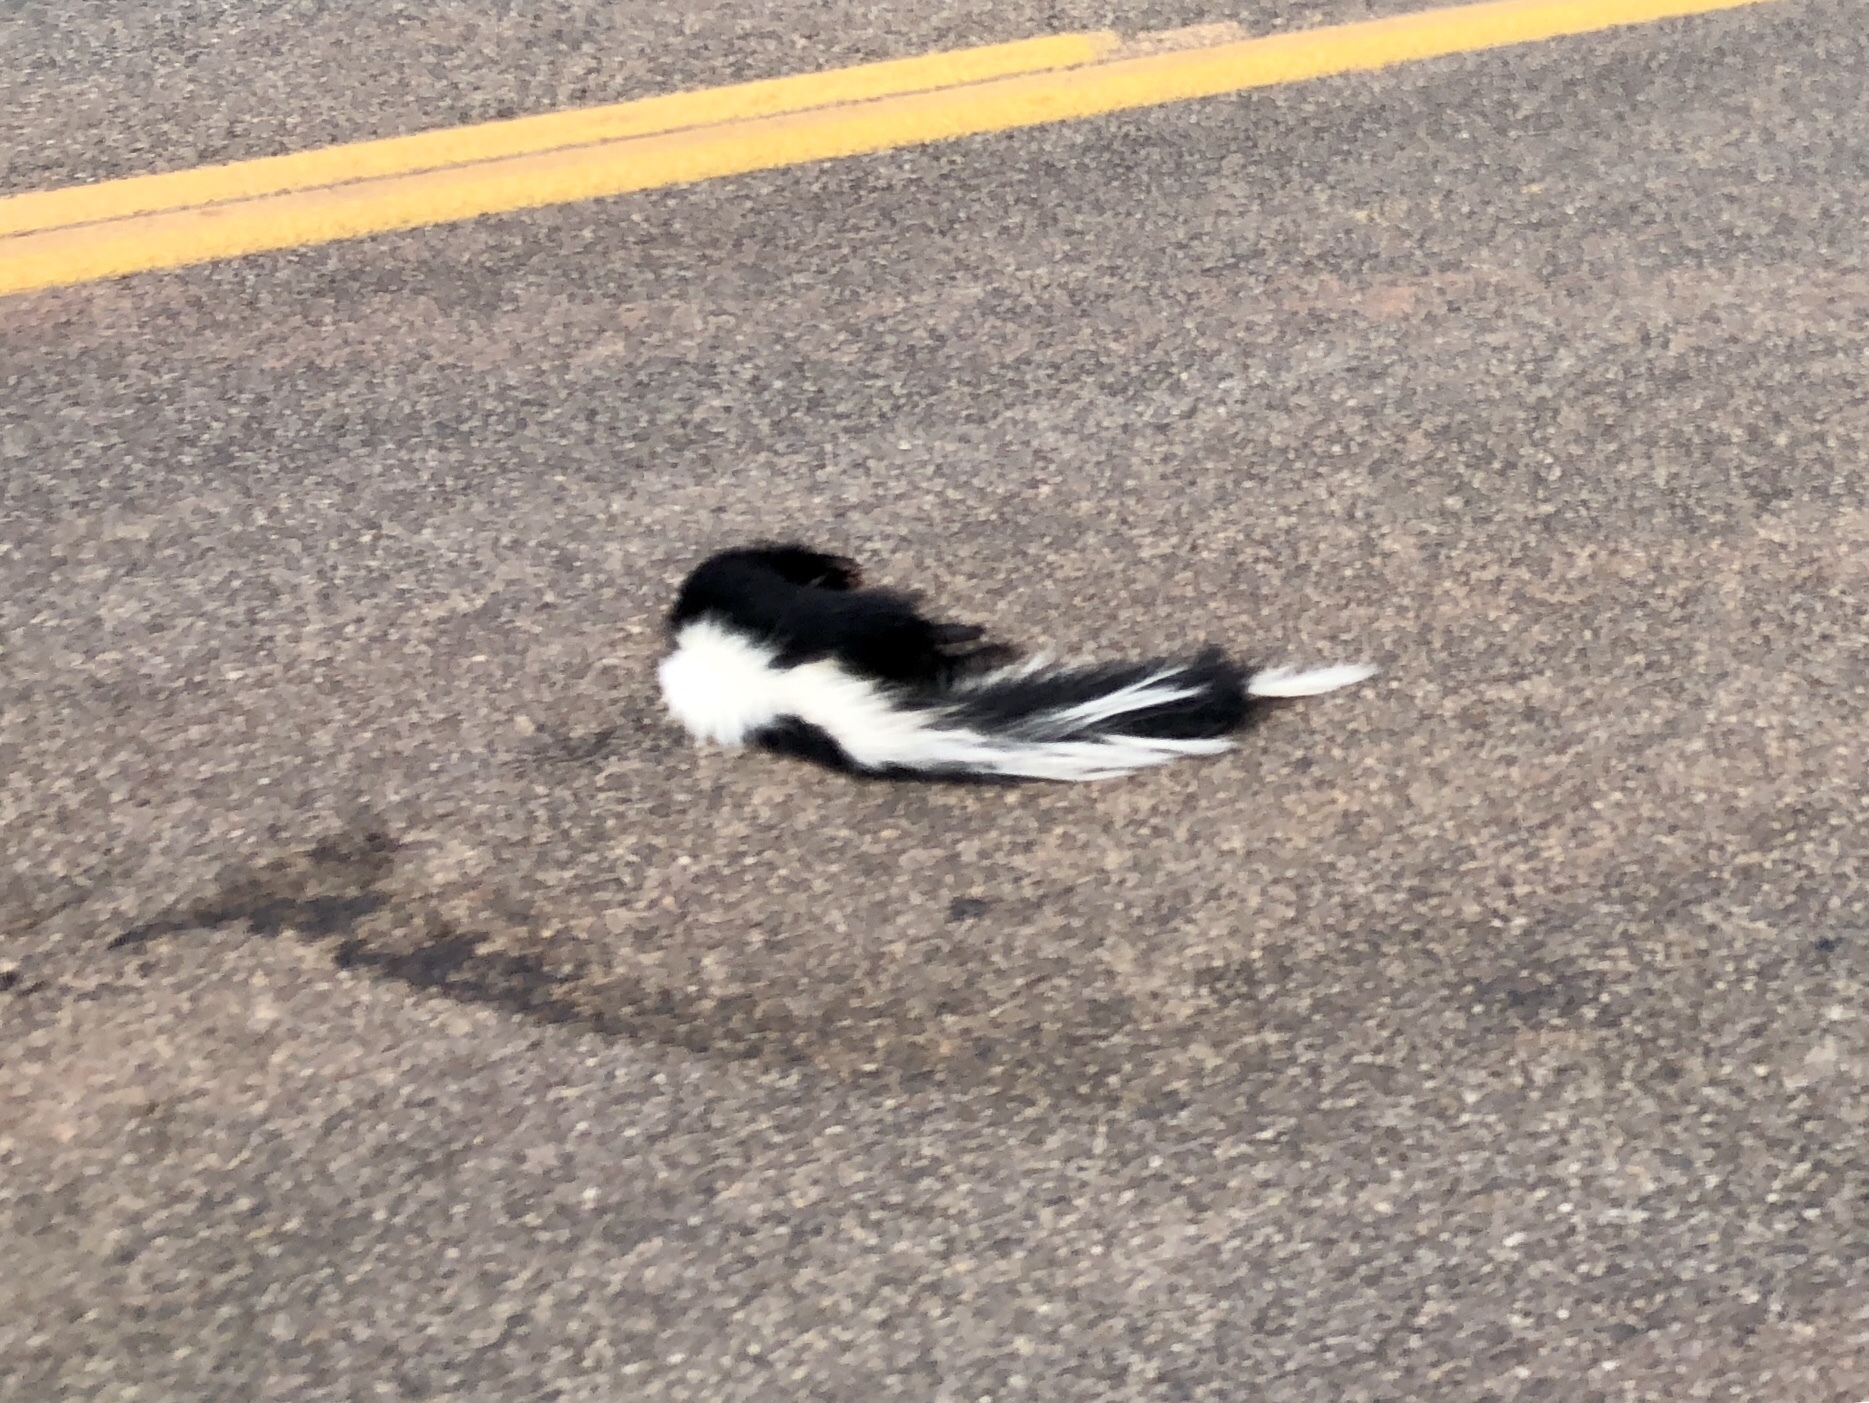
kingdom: Animalia
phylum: Chordata
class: Mammalia
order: Carnivora
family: Mephitidae
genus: Mephitis
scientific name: Mephitis mephitis
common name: Striped skunk
